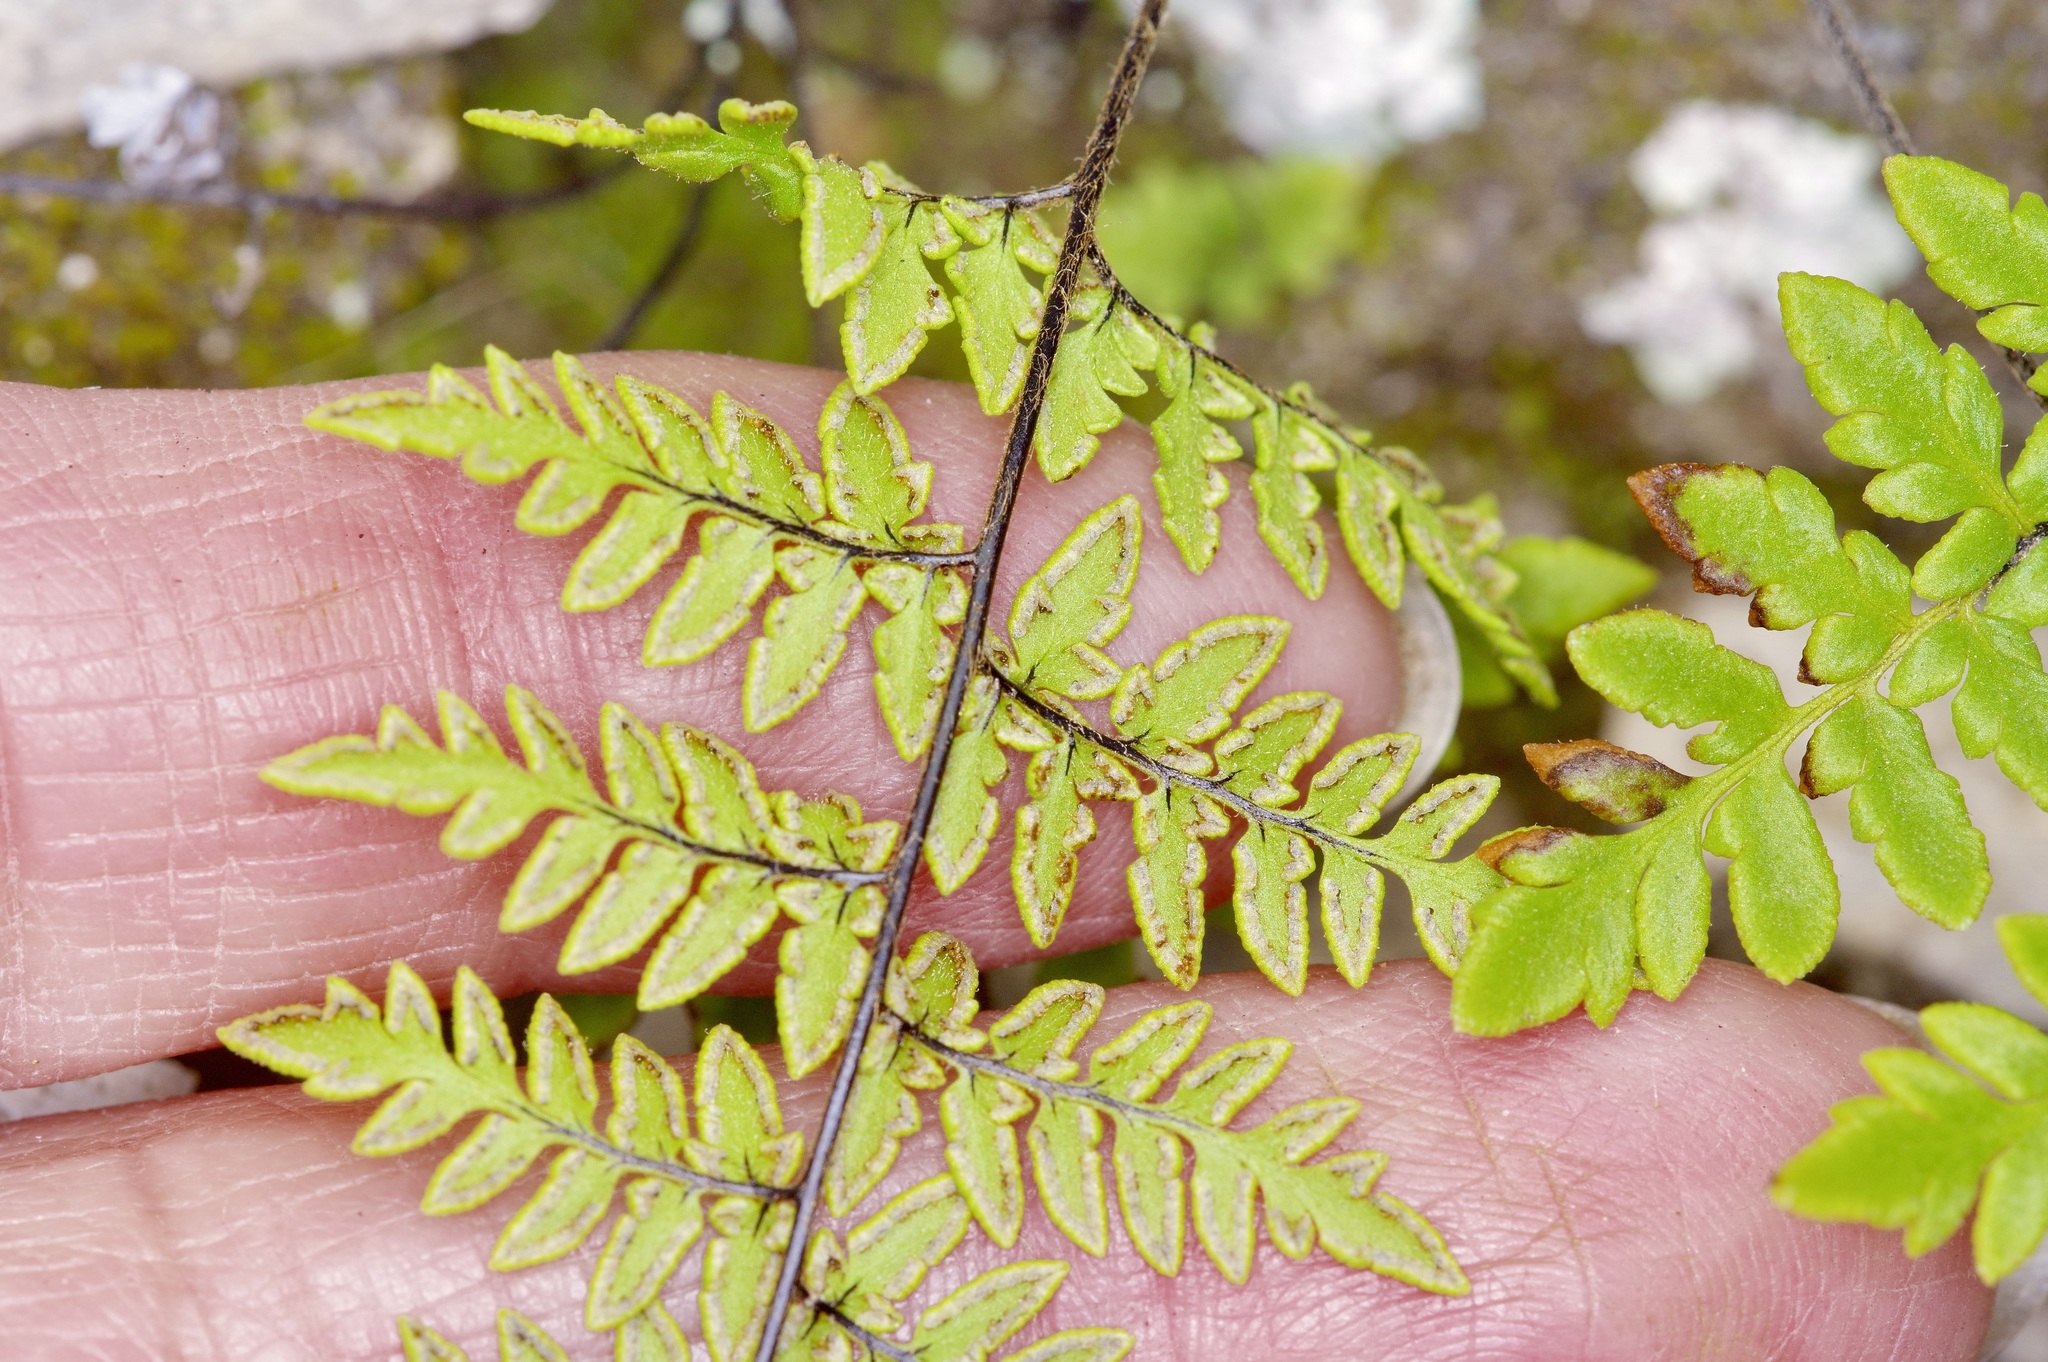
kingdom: Plantae
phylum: Tracheophyta
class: Polypodiopsida
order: Polypodiales
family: Pteridaceae
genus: Myriopteris
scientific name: Myriopteris alabamensis
